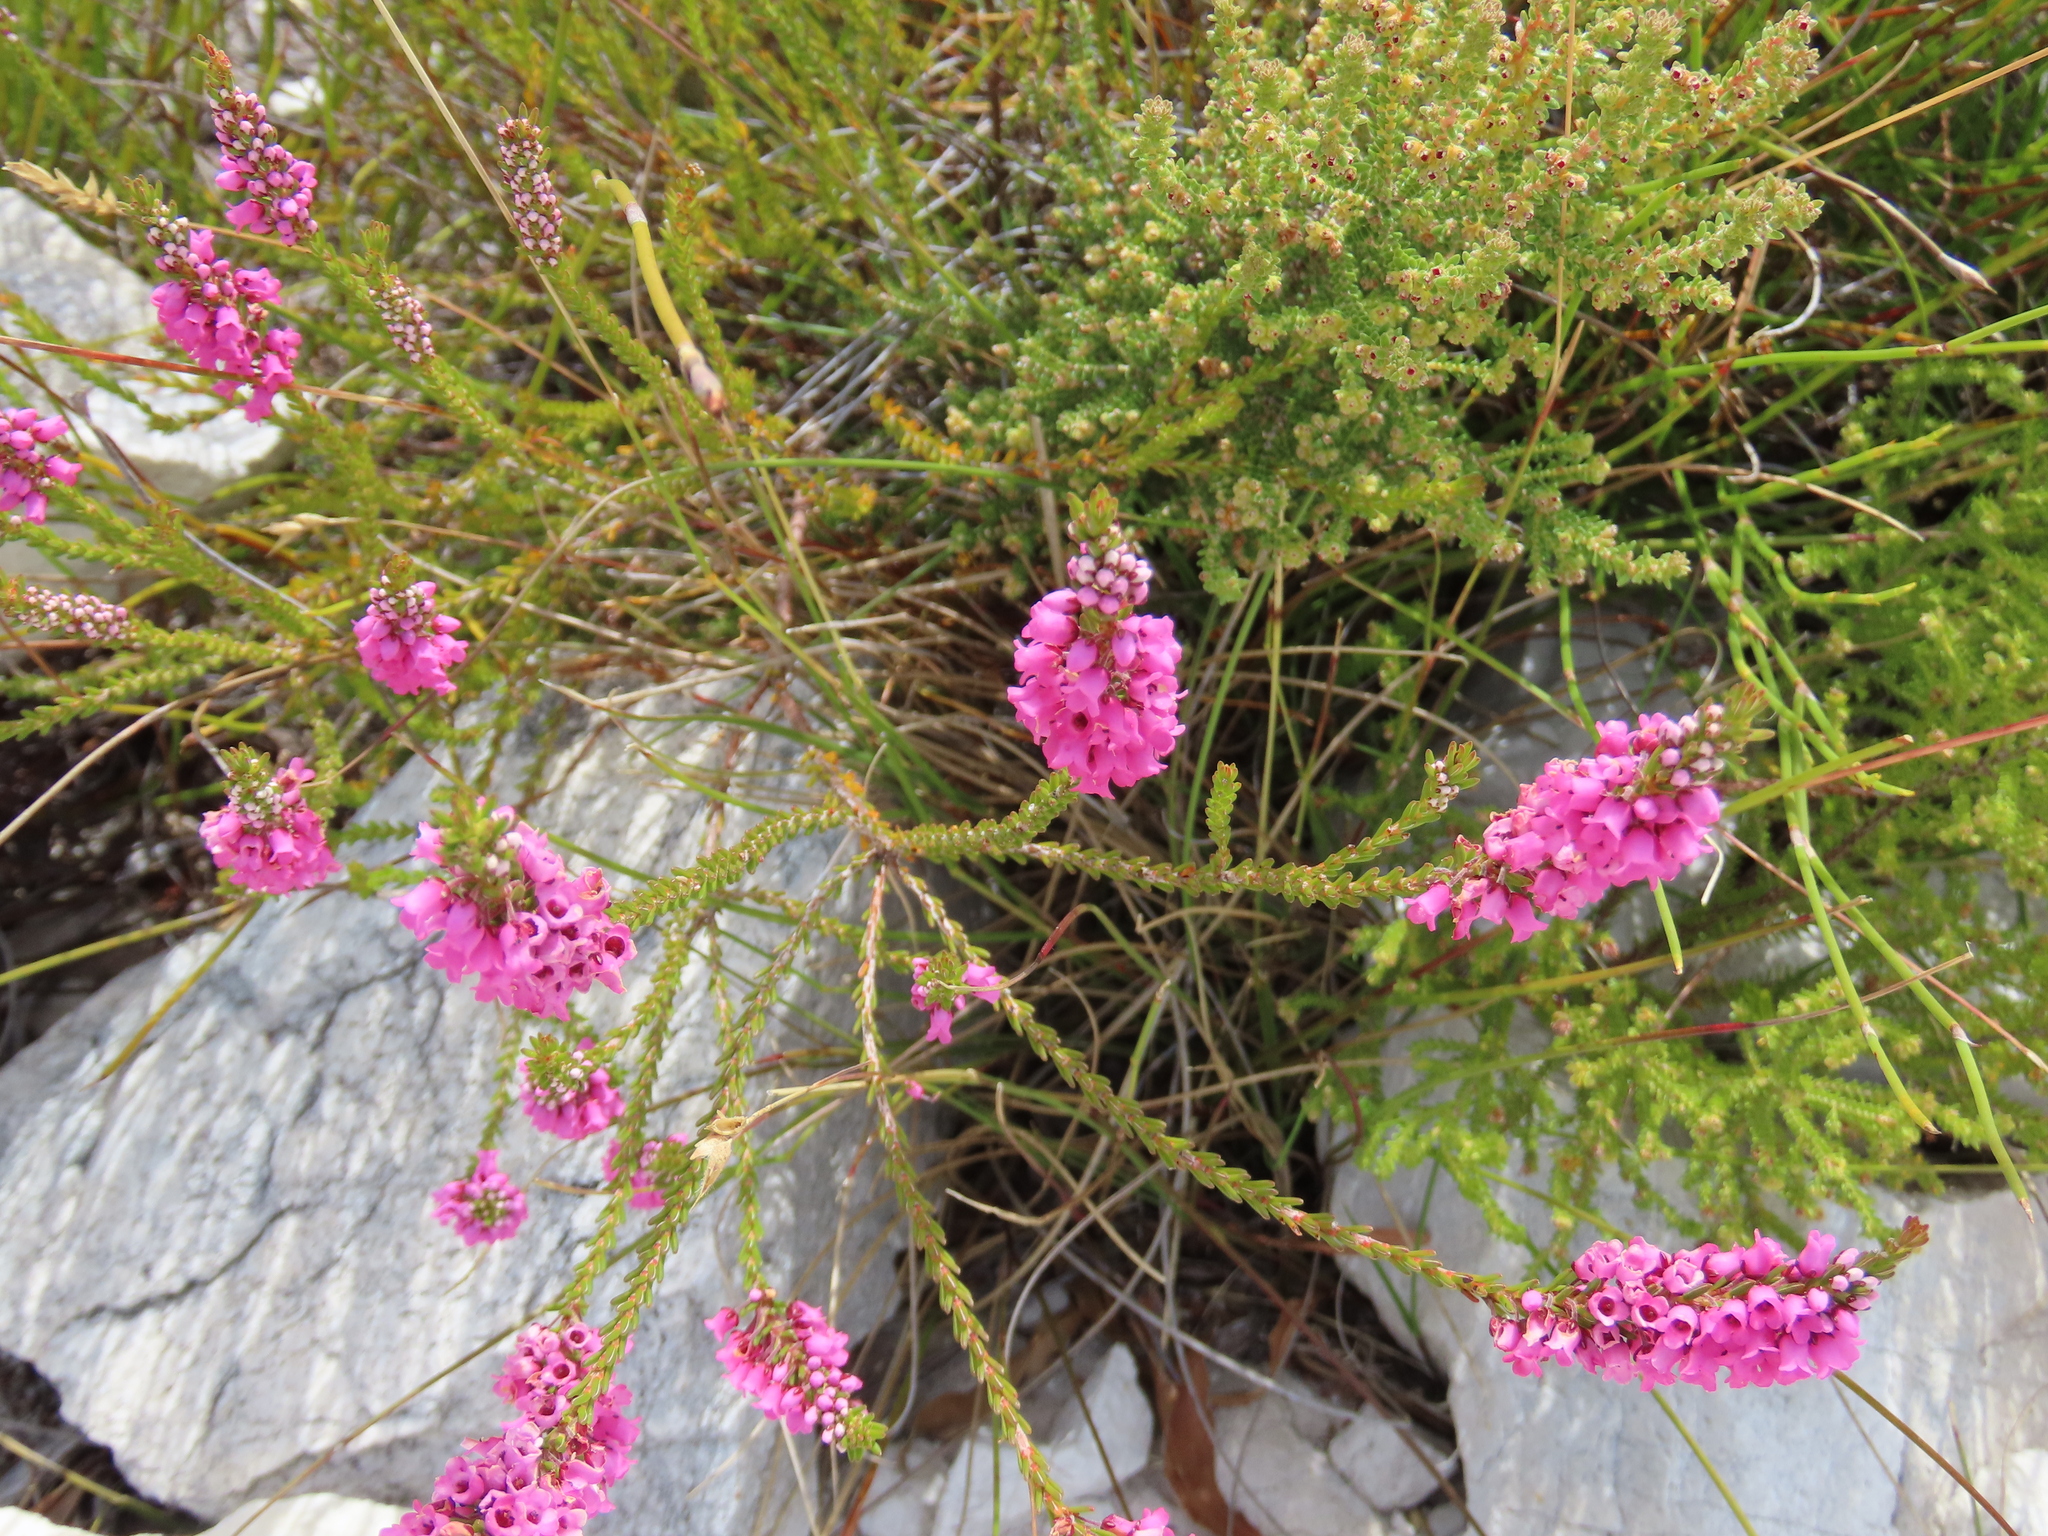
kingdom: Plantae
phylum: Tracheophyta
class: Magnoliopsida
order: Ericales
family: Ericaceae
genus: Erica
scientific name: Erica pulchella
